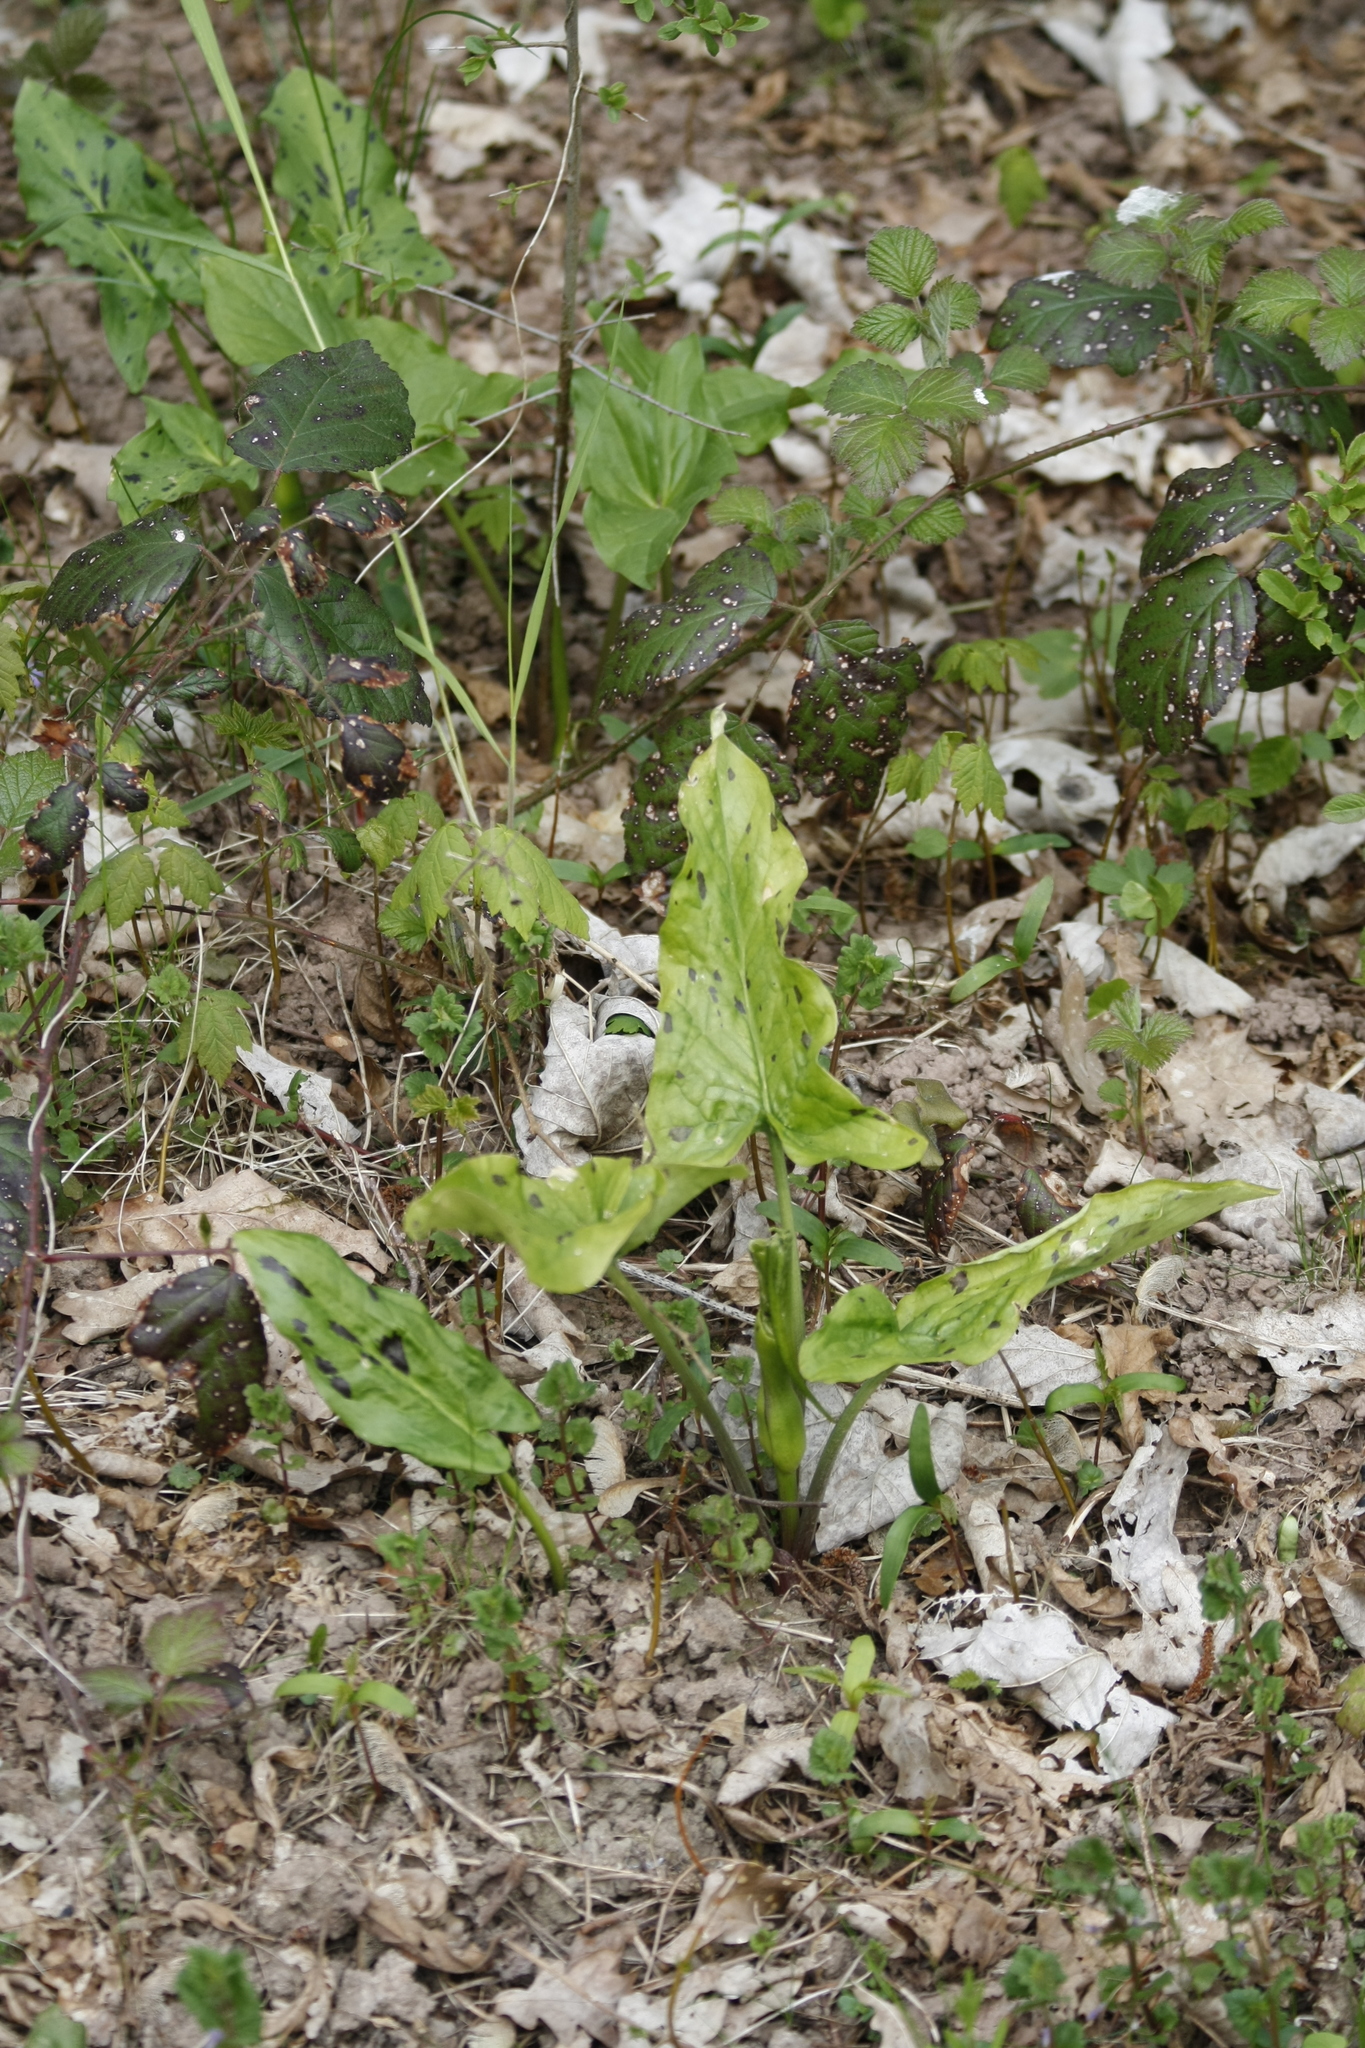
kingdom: Plantae
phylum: Tracheophyta
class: Liliopsida
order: Alismatales
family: Araceae
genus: Arum
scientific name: Arum maculatum
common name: Lords-and-ladies
